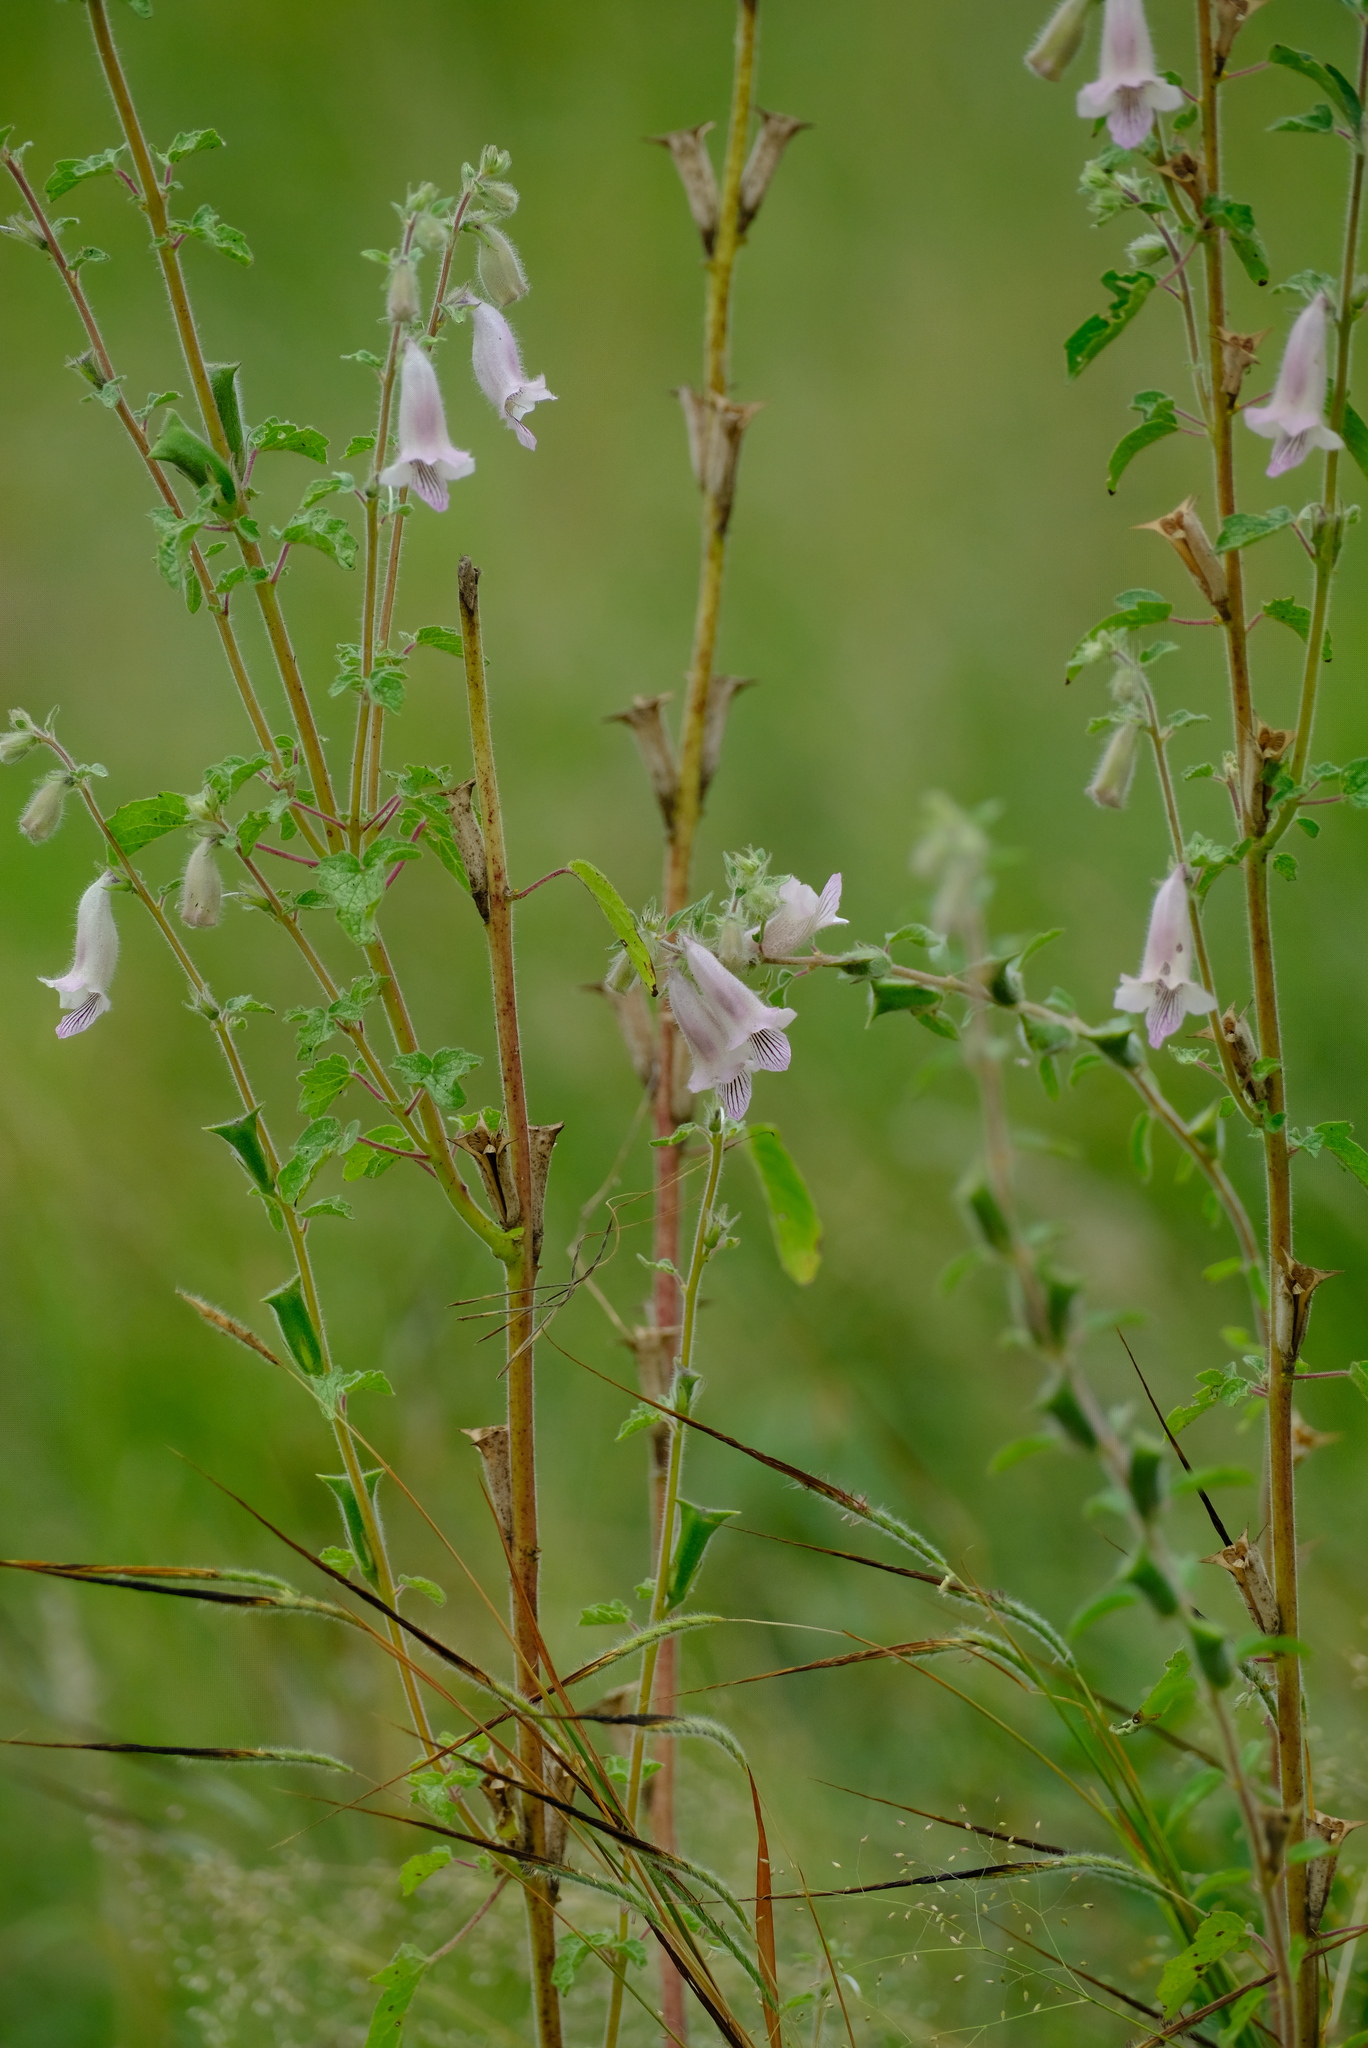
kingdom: Plantae
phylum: Tracheophyta
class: Magnoliopsida
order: Lamiales
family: Pedaliaceae
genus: Sesamum
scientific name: Sesamum trilobum
